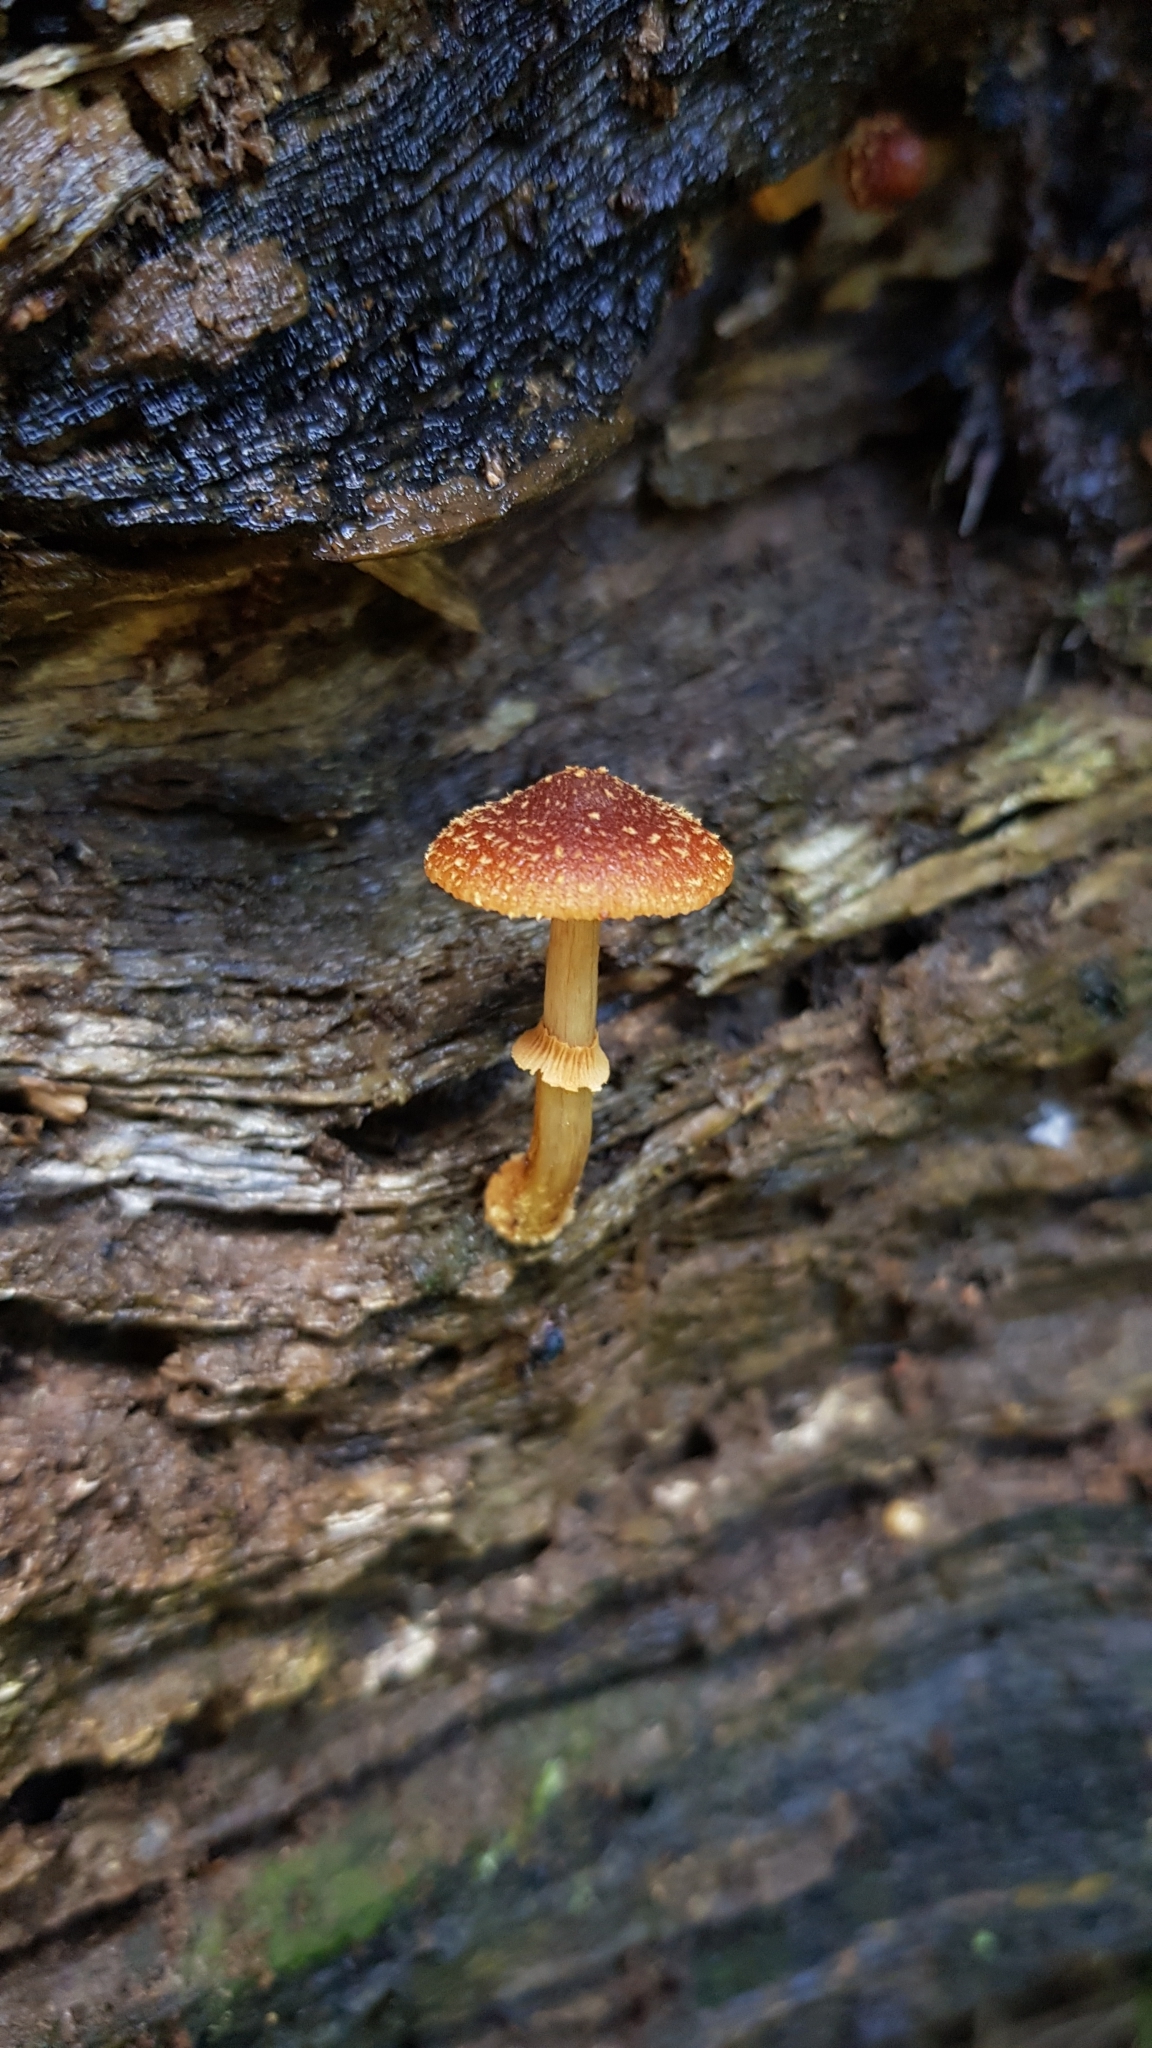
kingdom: Fungi
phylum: Basidiomycota
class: Agaricomycetes
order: Agaricales
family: Bolbitiaceae
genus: Descolea
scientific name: Descolea recedens
